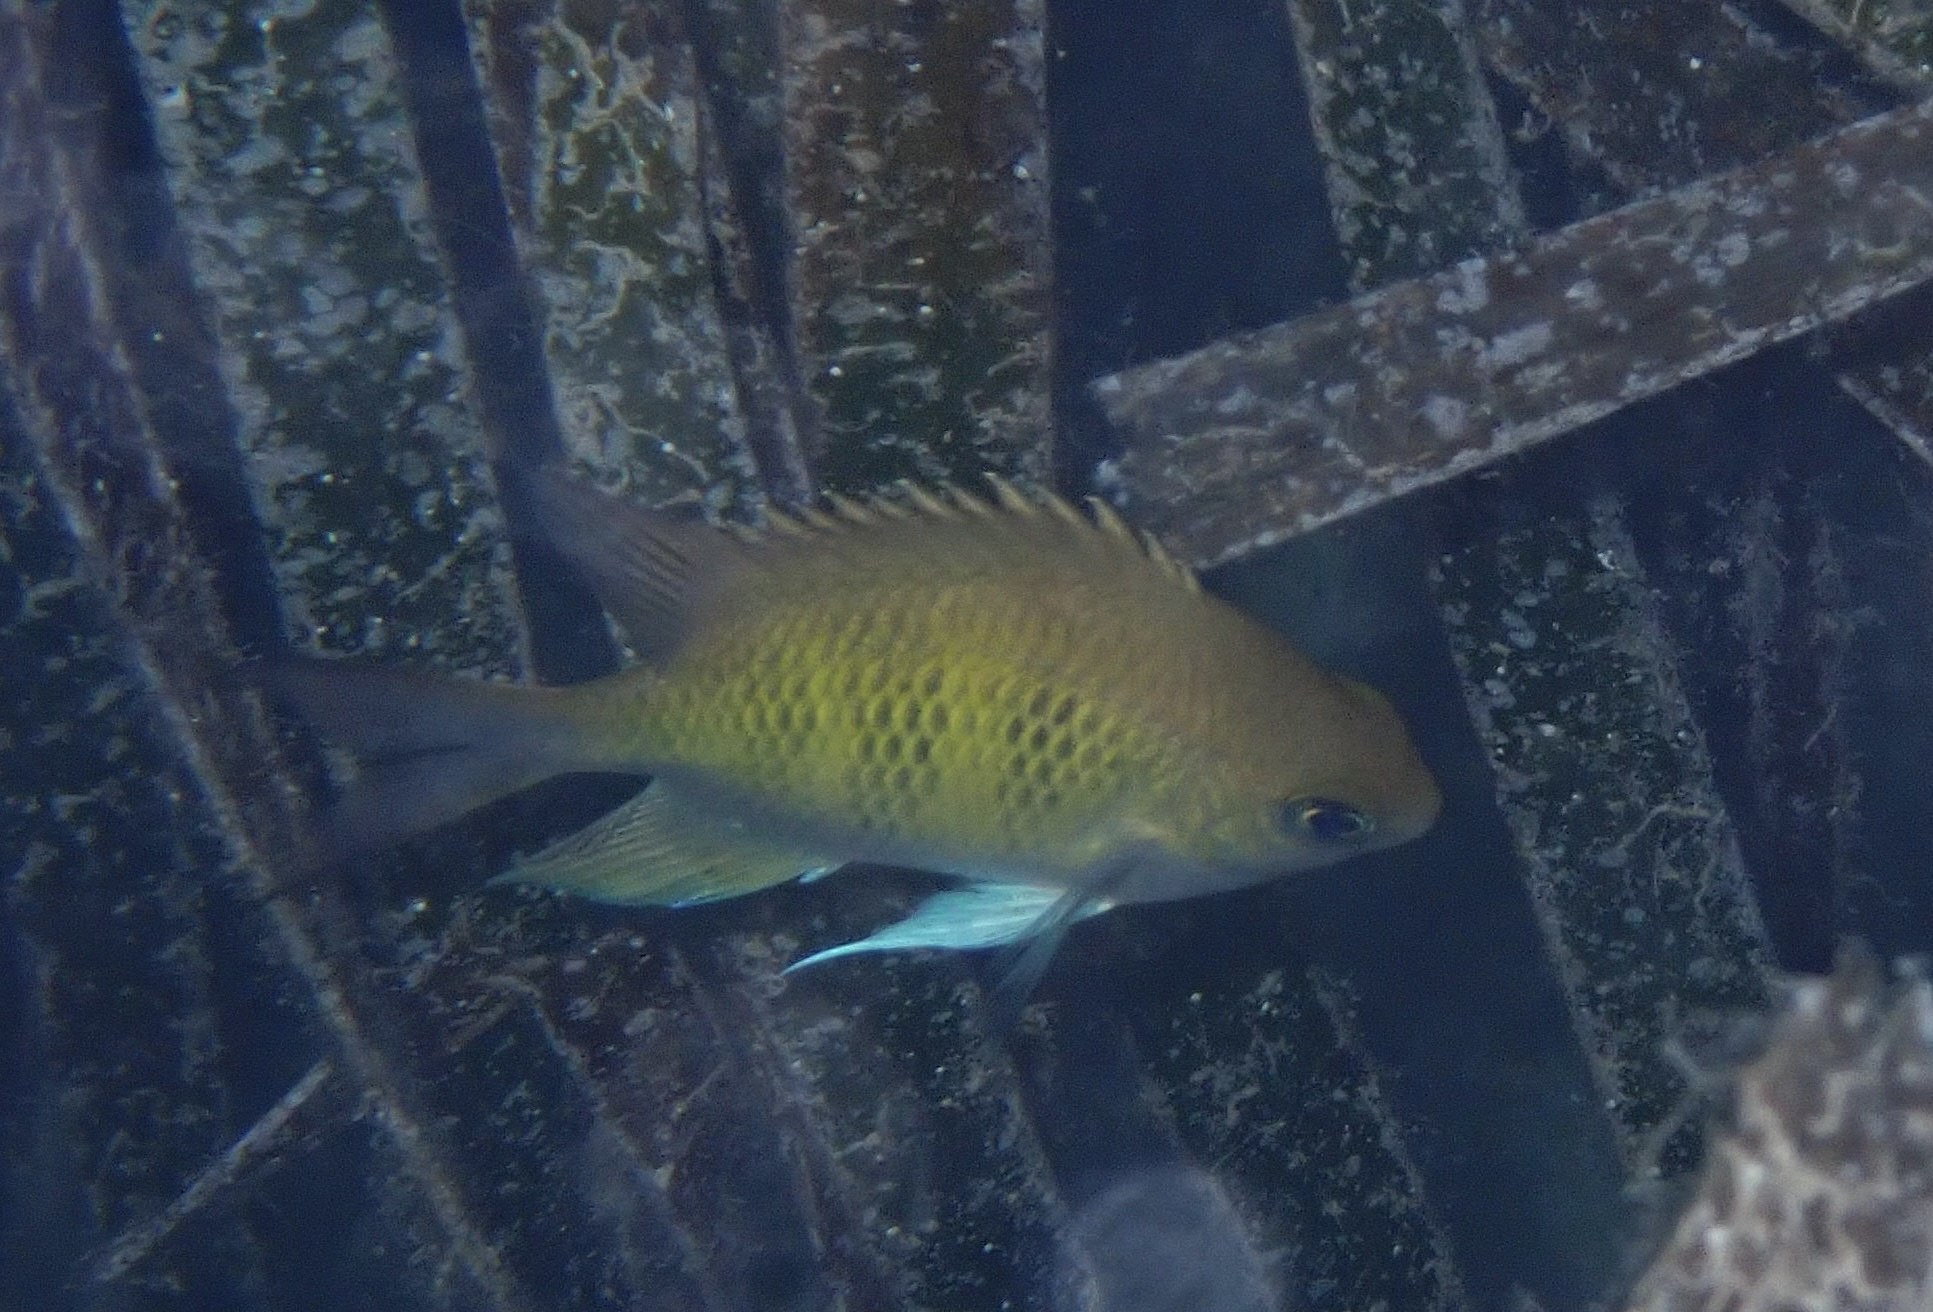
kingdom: Animalia
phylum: Chordata
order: Perciformes
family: Pomacentridae
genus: Amblyglyphidodon
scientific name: Amblyglyphidodon curacao
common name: Staghorn damsel
